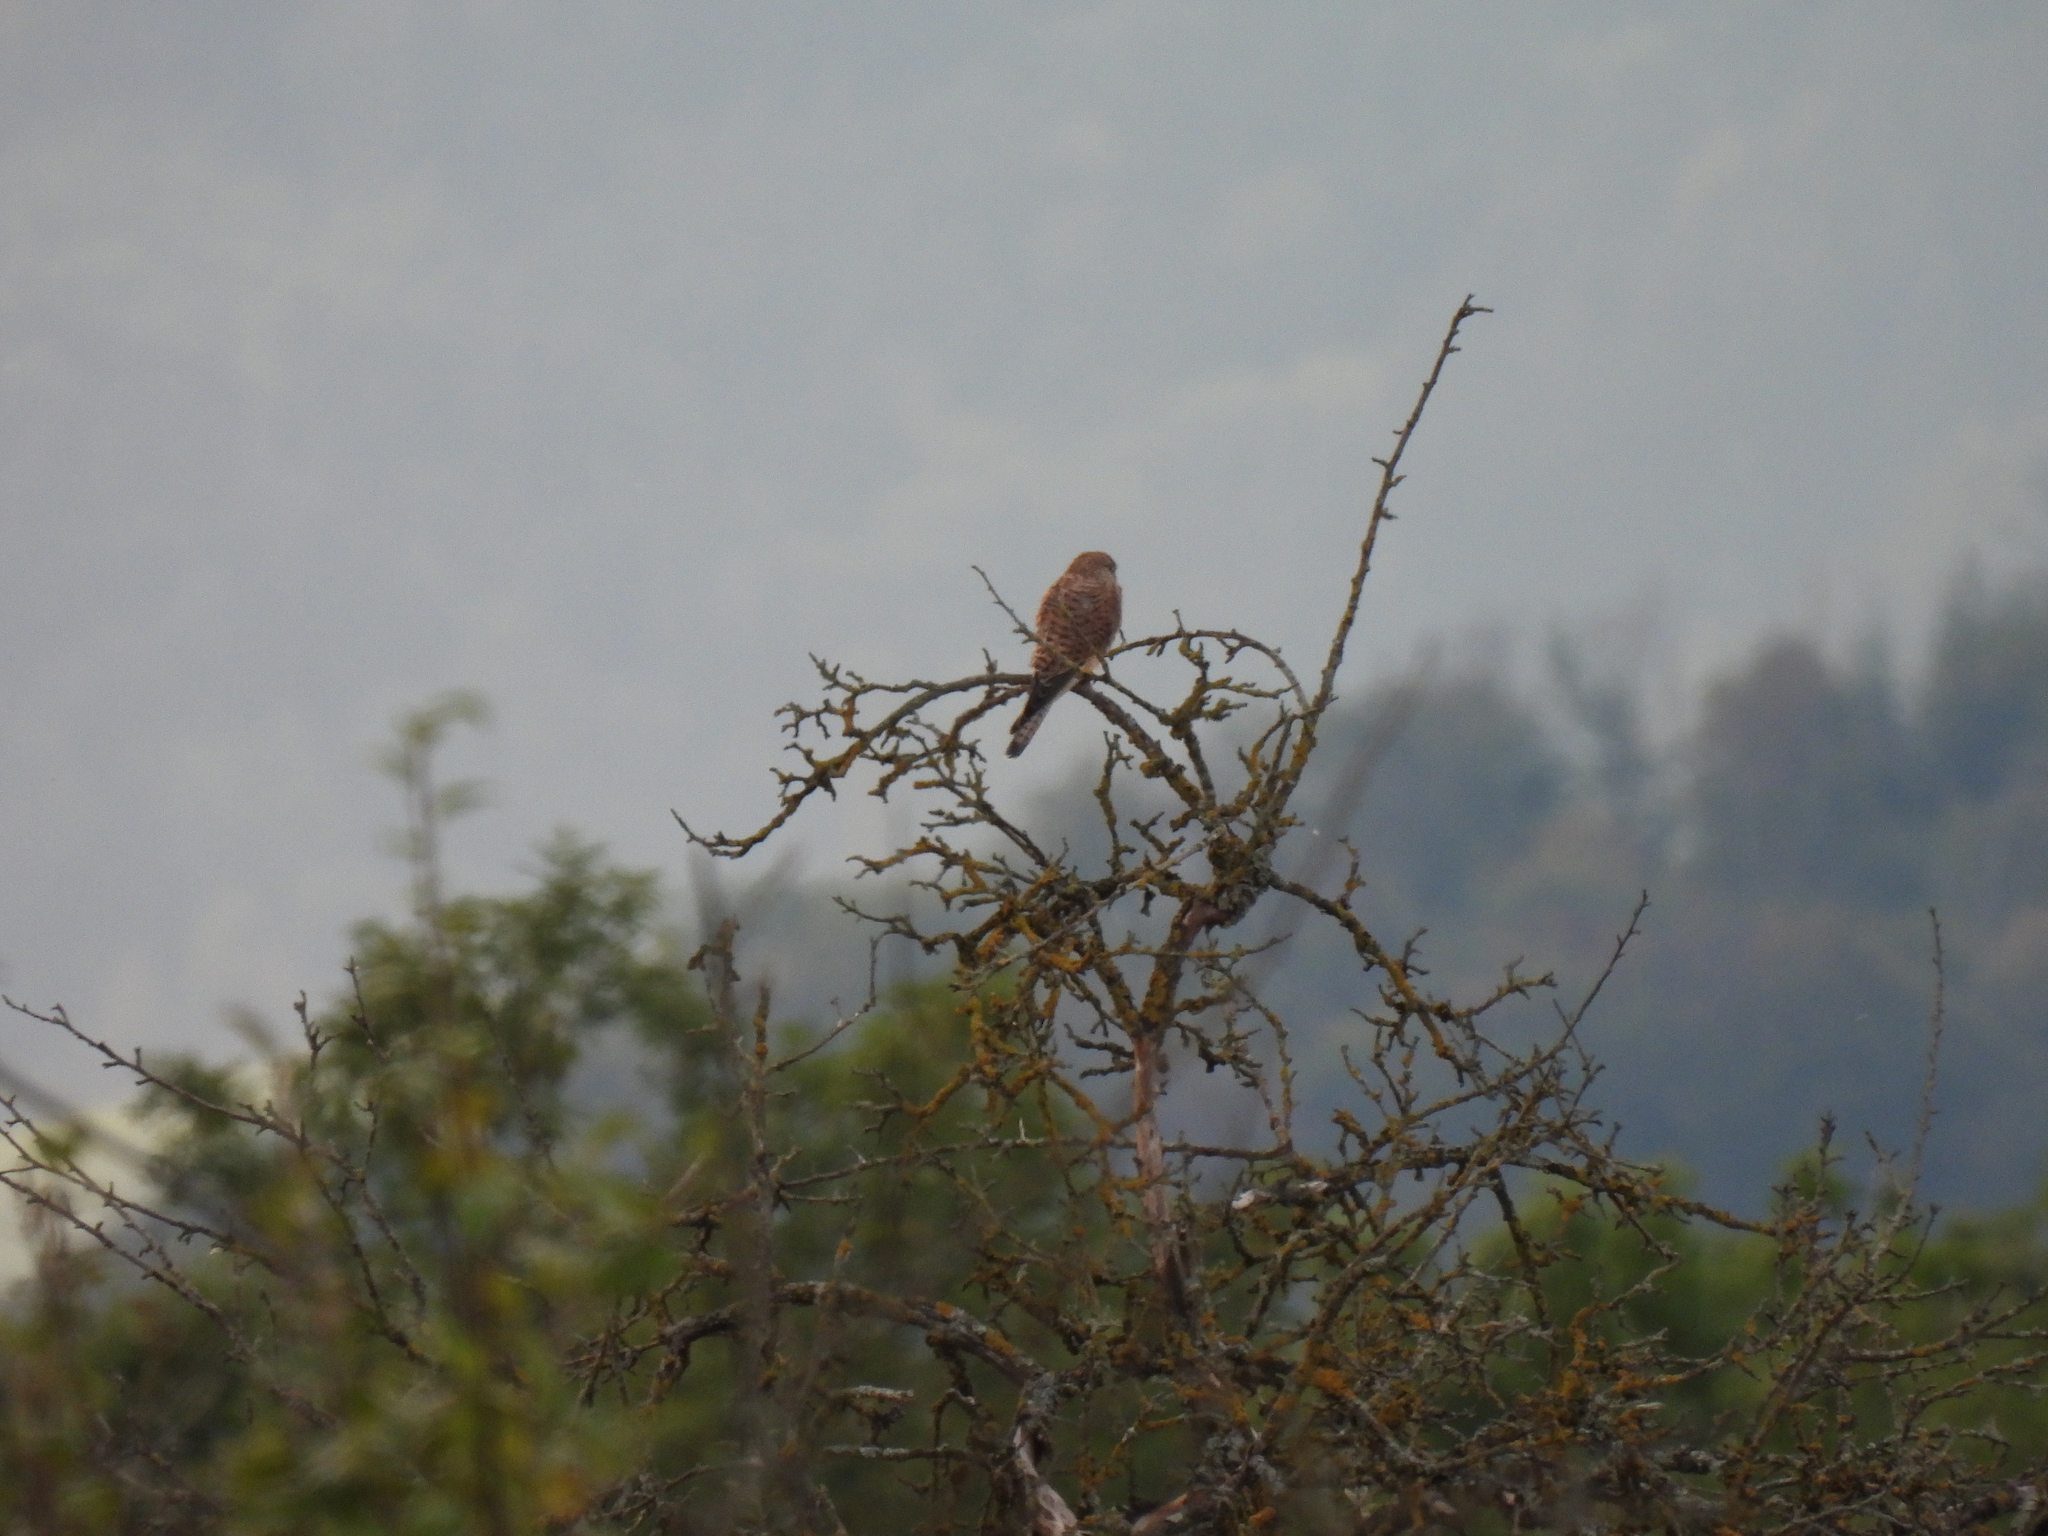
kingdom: Animalia
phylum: Chordata
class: Aves
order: Falconiformes
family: Falconidae
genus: Falco
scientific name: Falco tinnunculus
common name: Common kestrel
